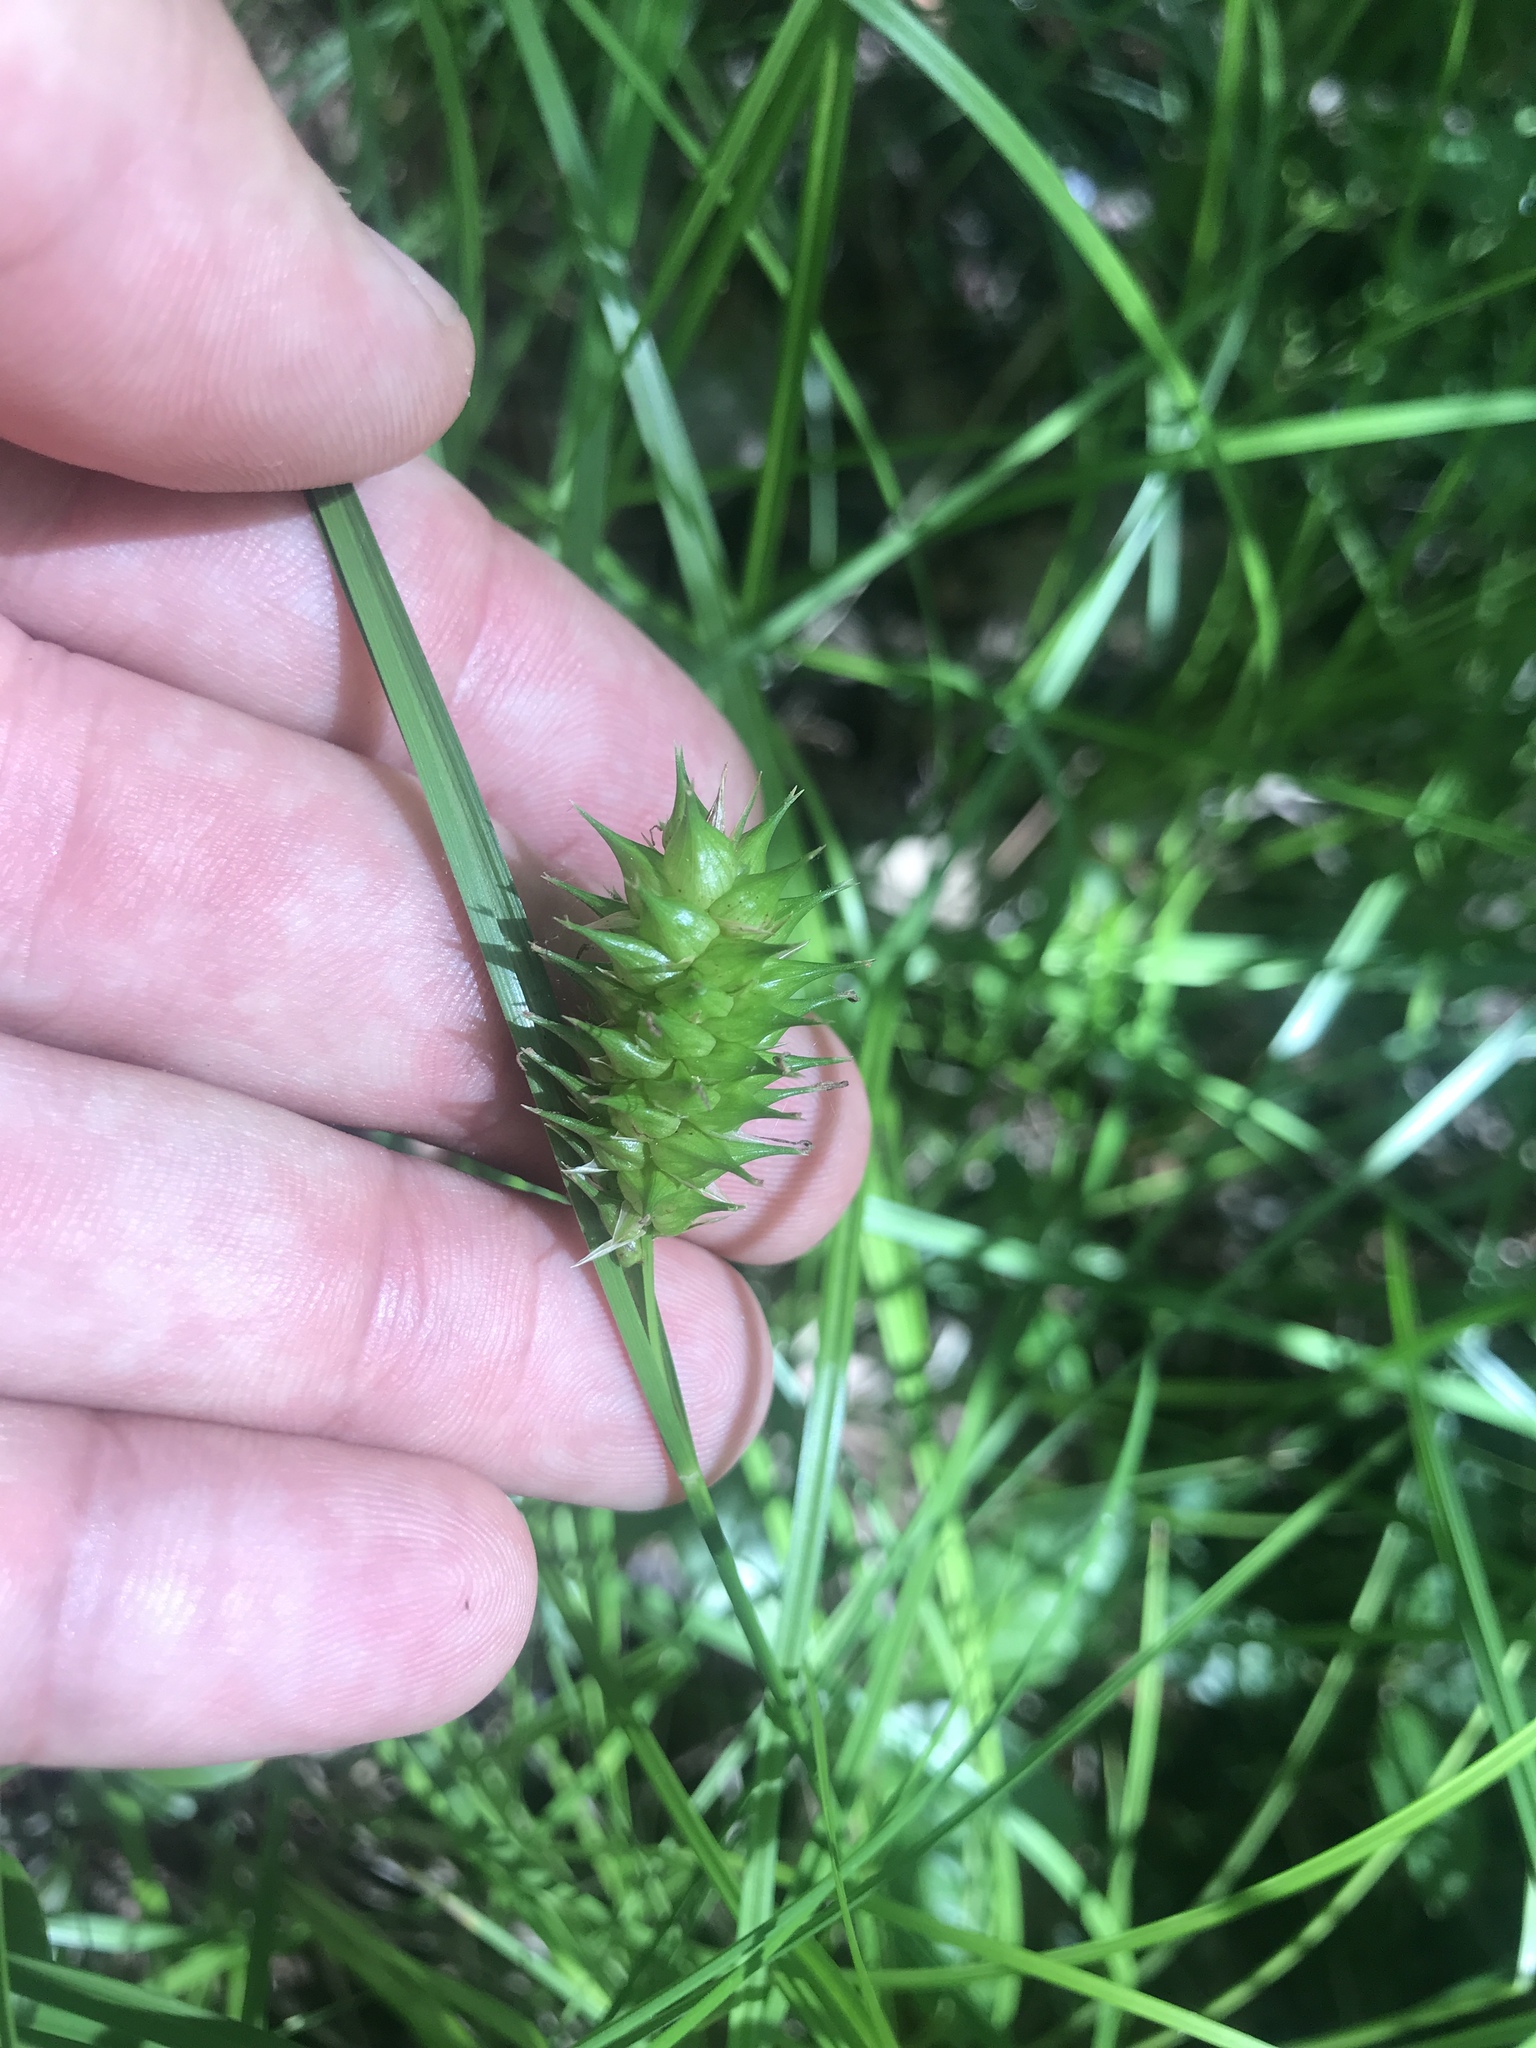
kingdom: Plantae
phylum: Tracheophyta
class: Liliopsida
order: Poales
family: Cyperaceae
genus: Carex
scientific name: Carex bullata
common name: Button sedge
